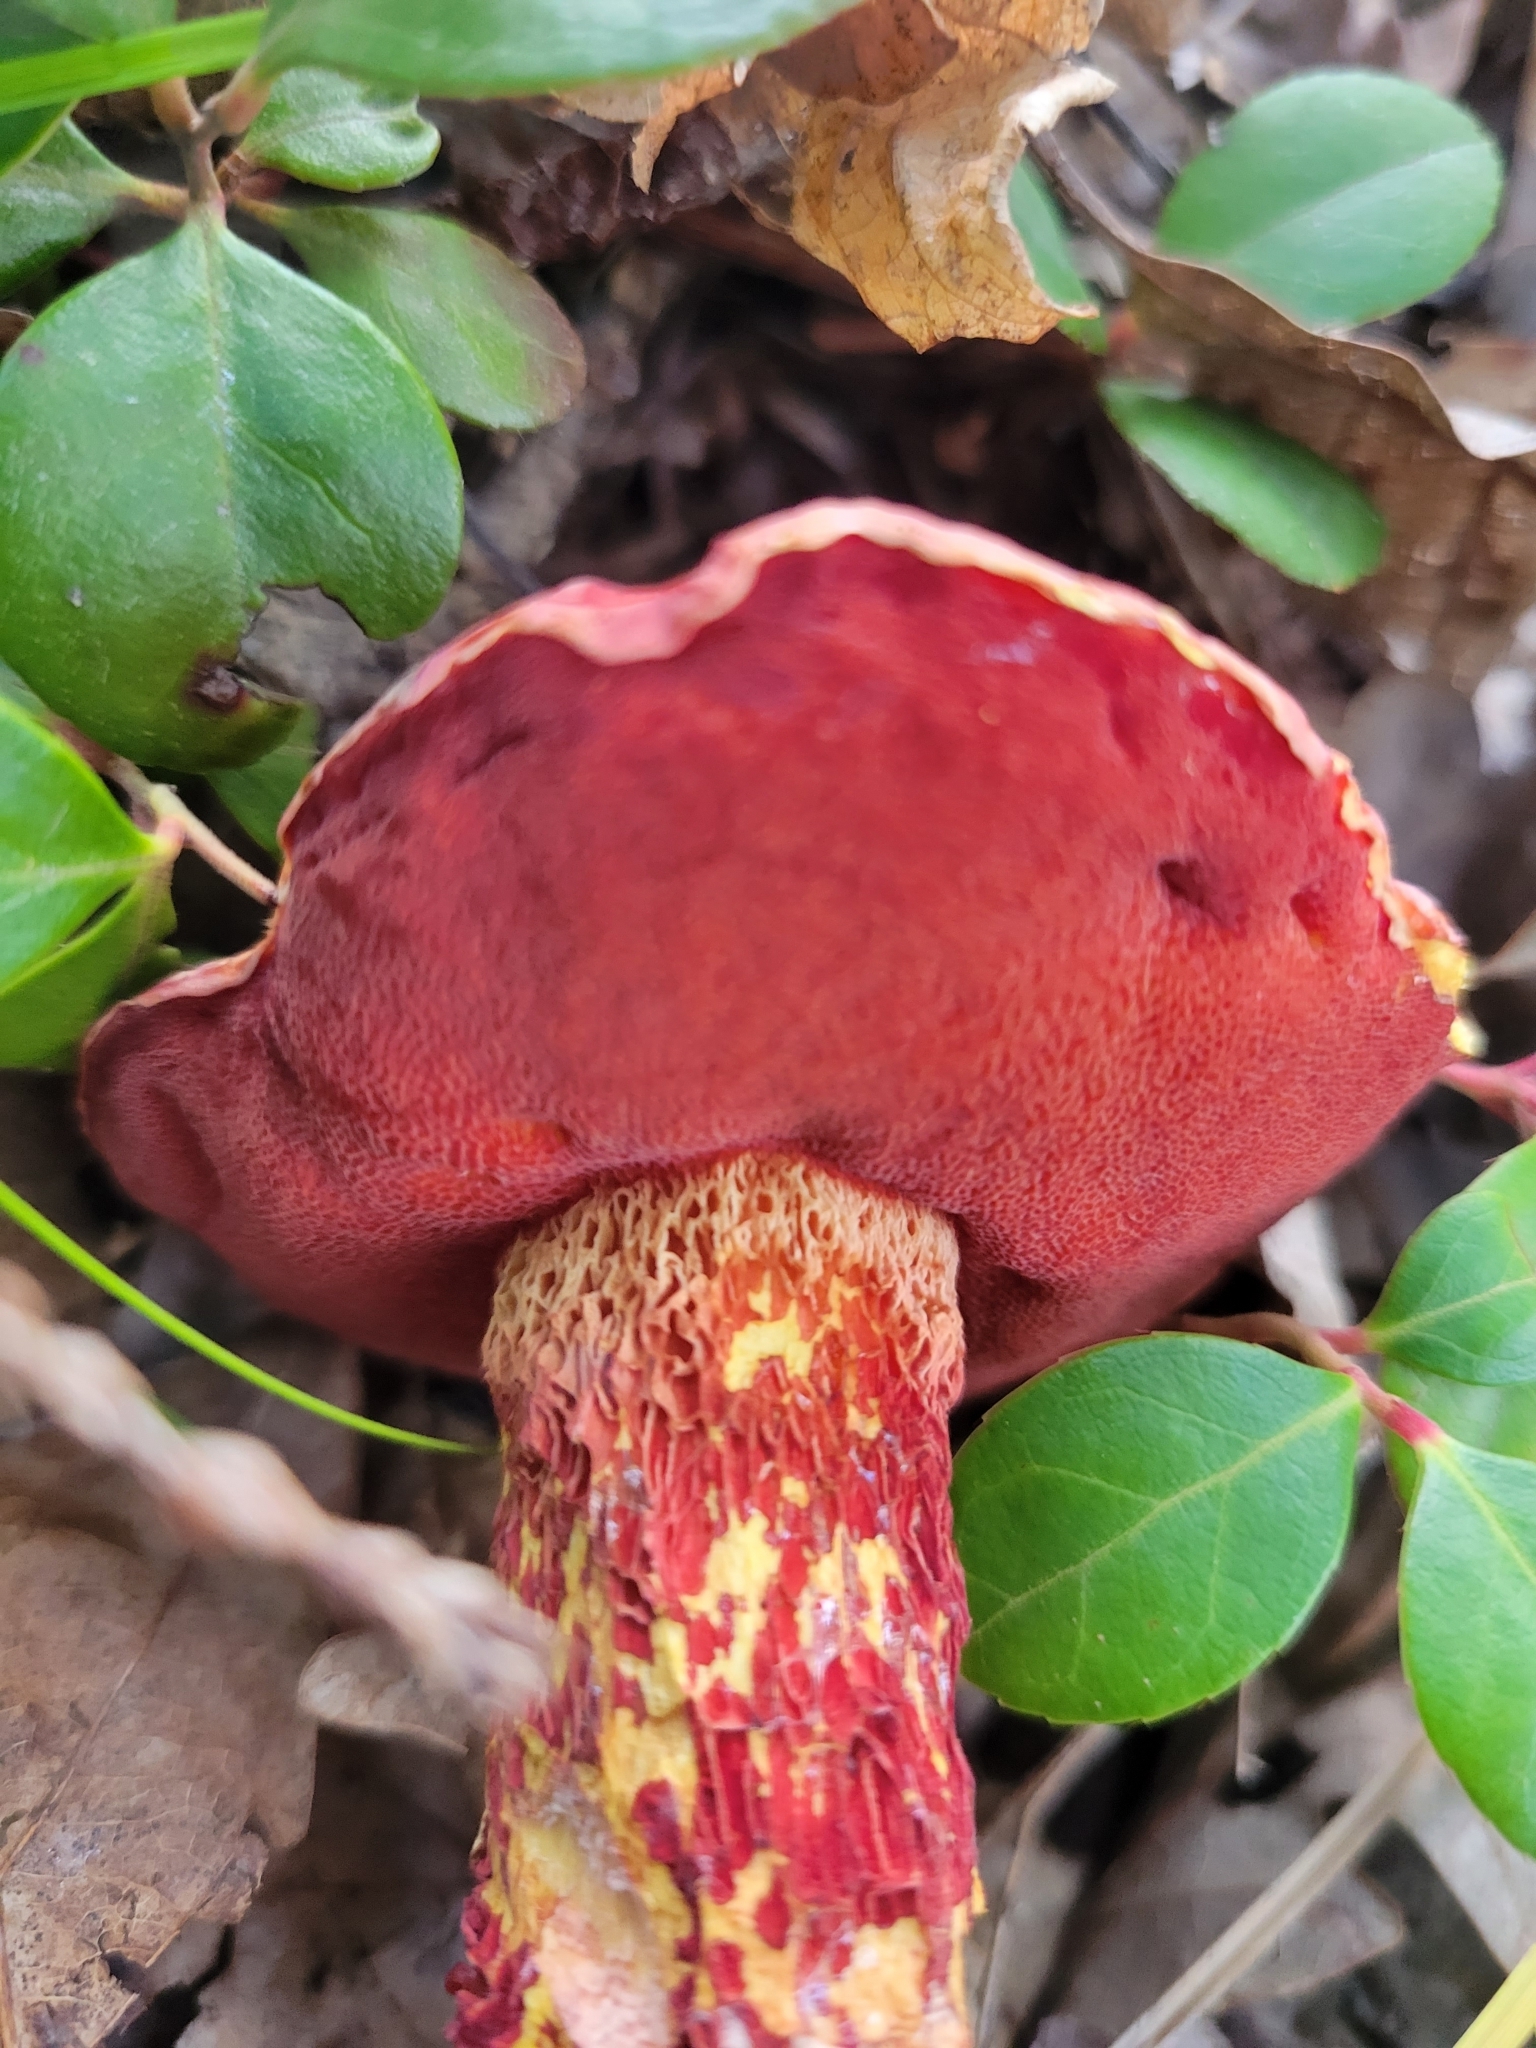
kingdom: Fungi
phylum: Basidiomycota
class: Agaricomycetes
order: Boletales
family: Boletaceae
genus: Butyriboletus
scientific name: Butyriboletus frostii
